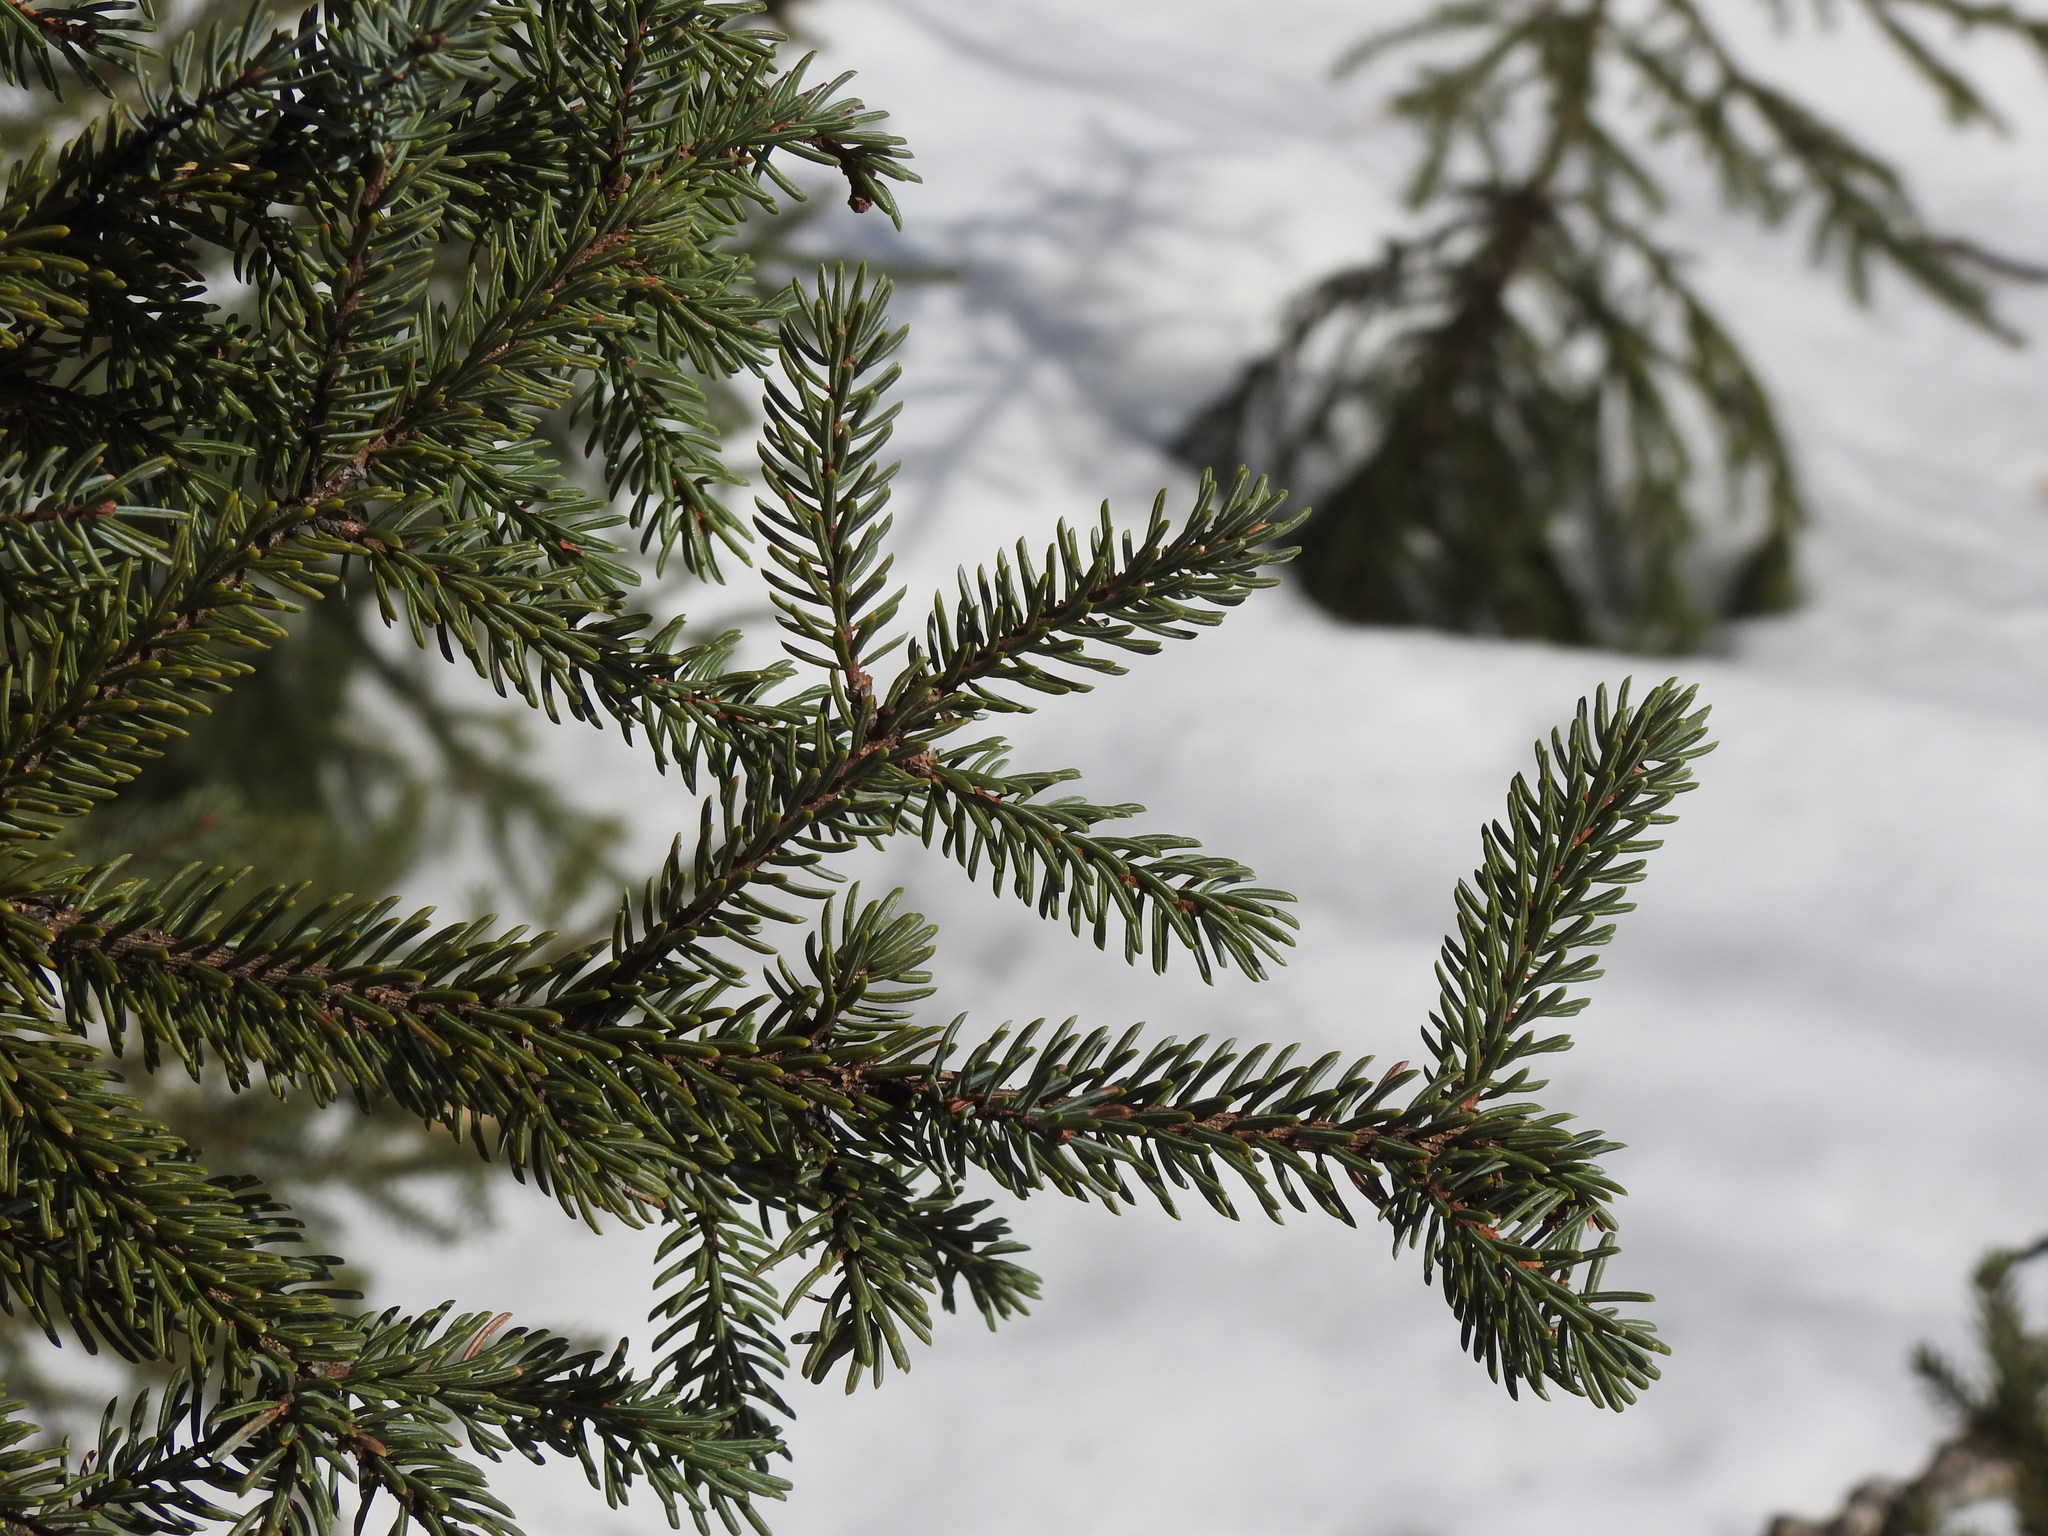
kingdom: Plantae
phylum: Tracheophyta
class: Pinopsida
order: Pinales
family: Pinaceae
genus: Picea
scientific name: Picea glauca
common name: White spruce
